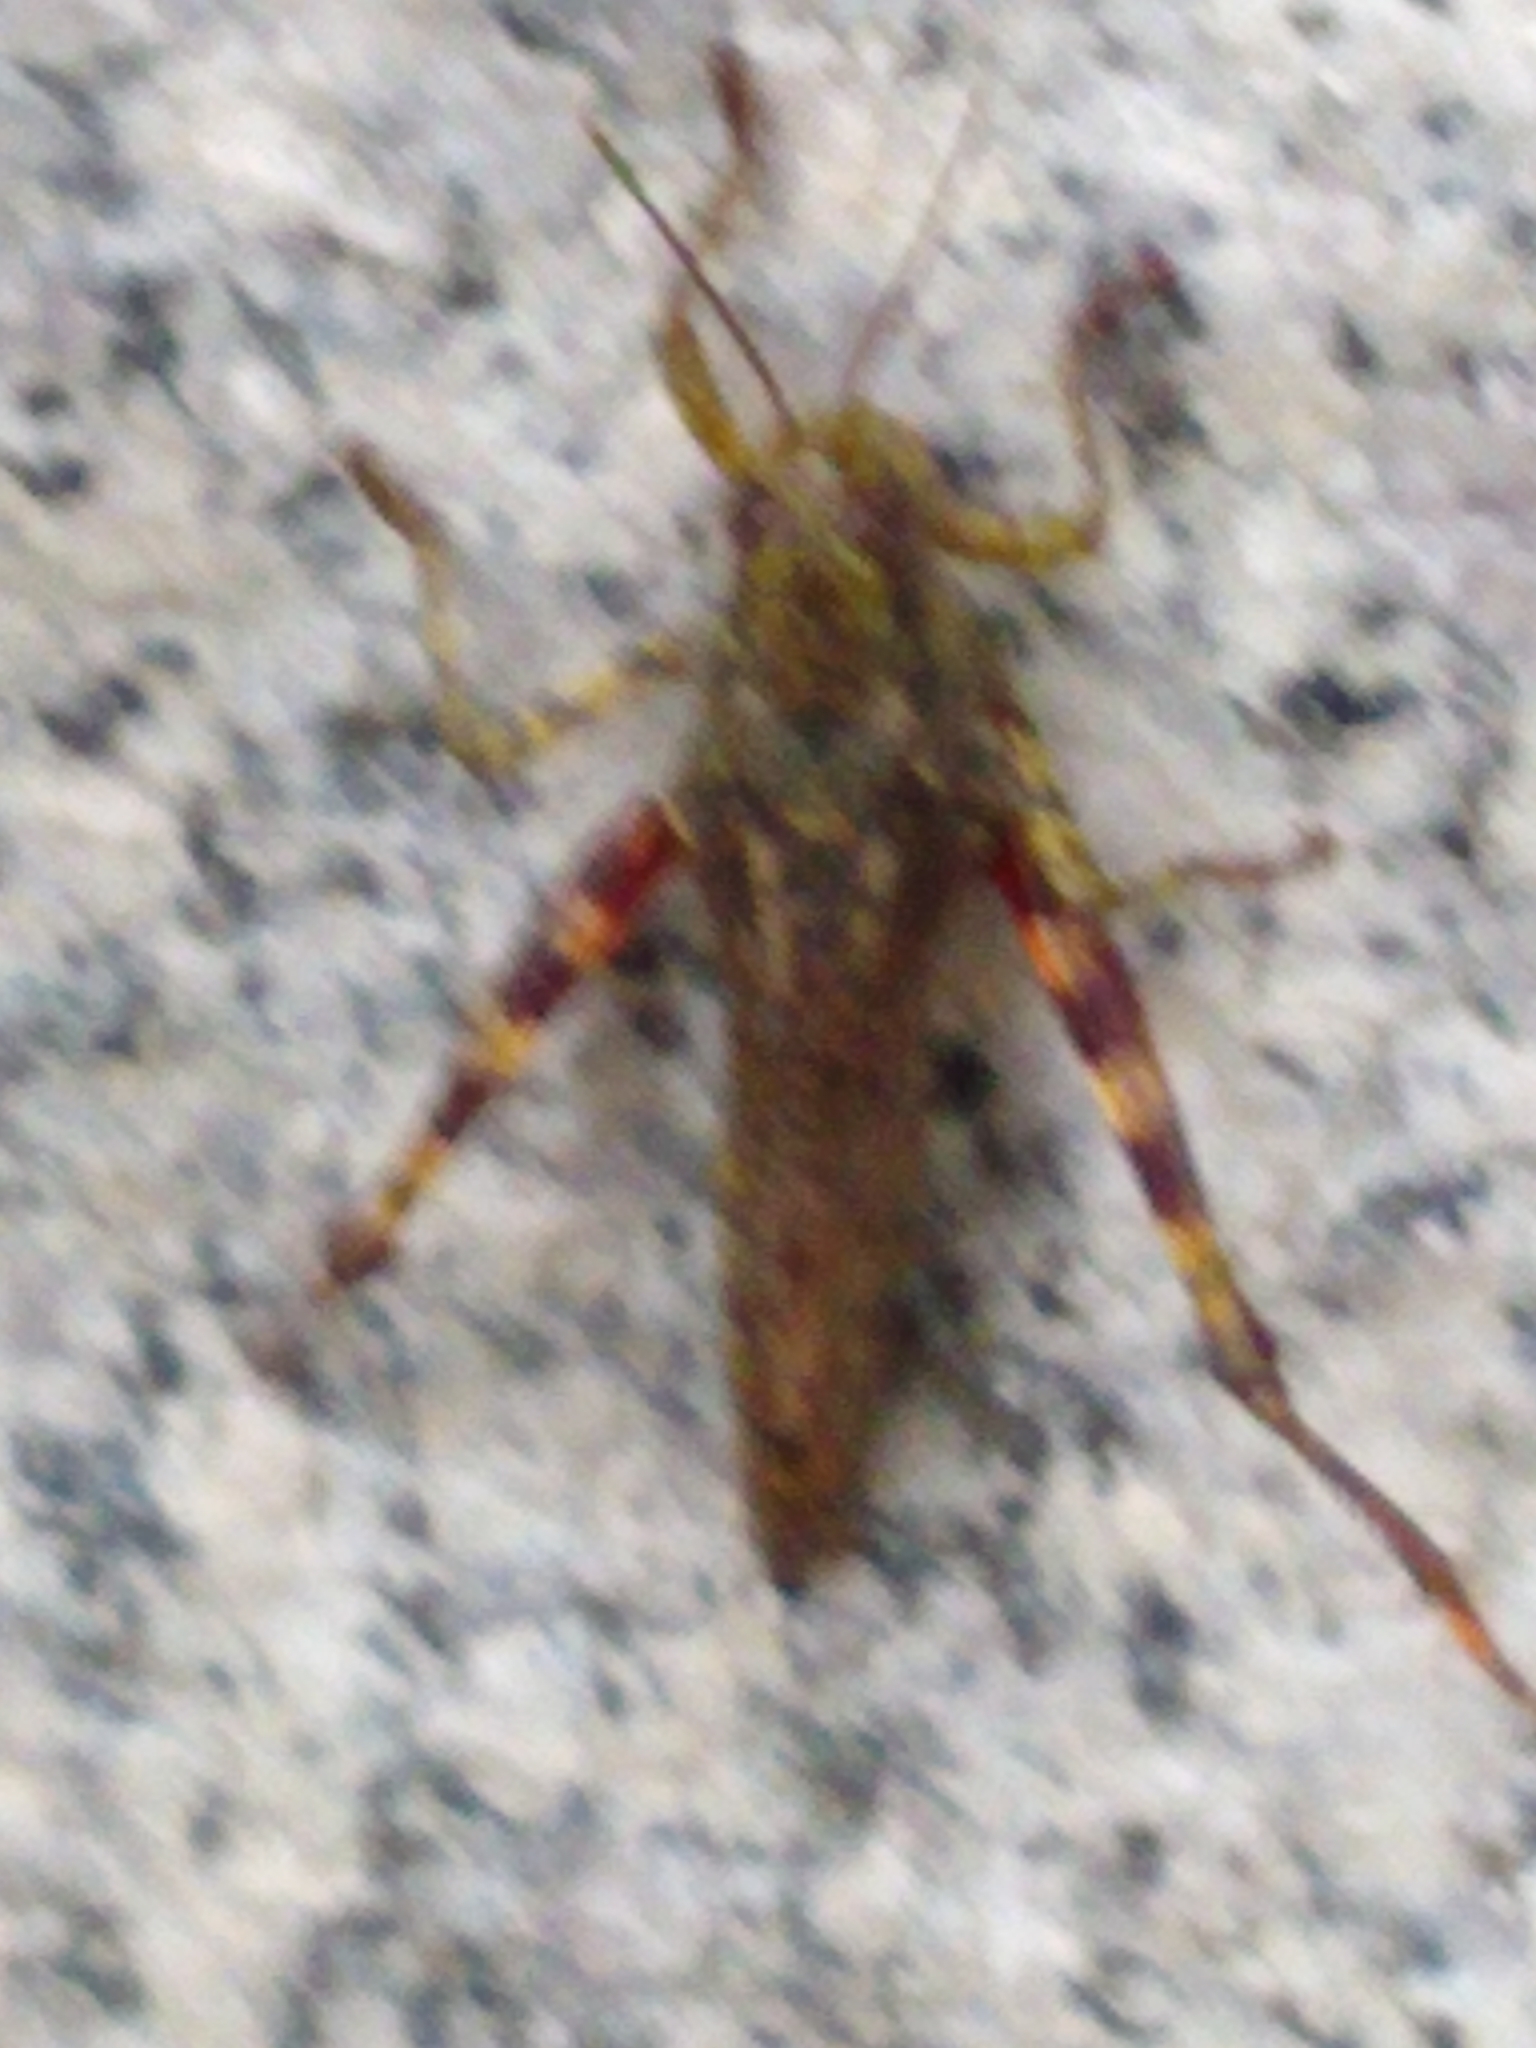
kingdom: Animalia
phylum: Arthropoda
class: Insecta
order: Orthoptera
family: Acrididae
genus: Melanoplus
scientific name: Melanoplus punctulatus
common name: Pine-tree spur-throat grasshopper
